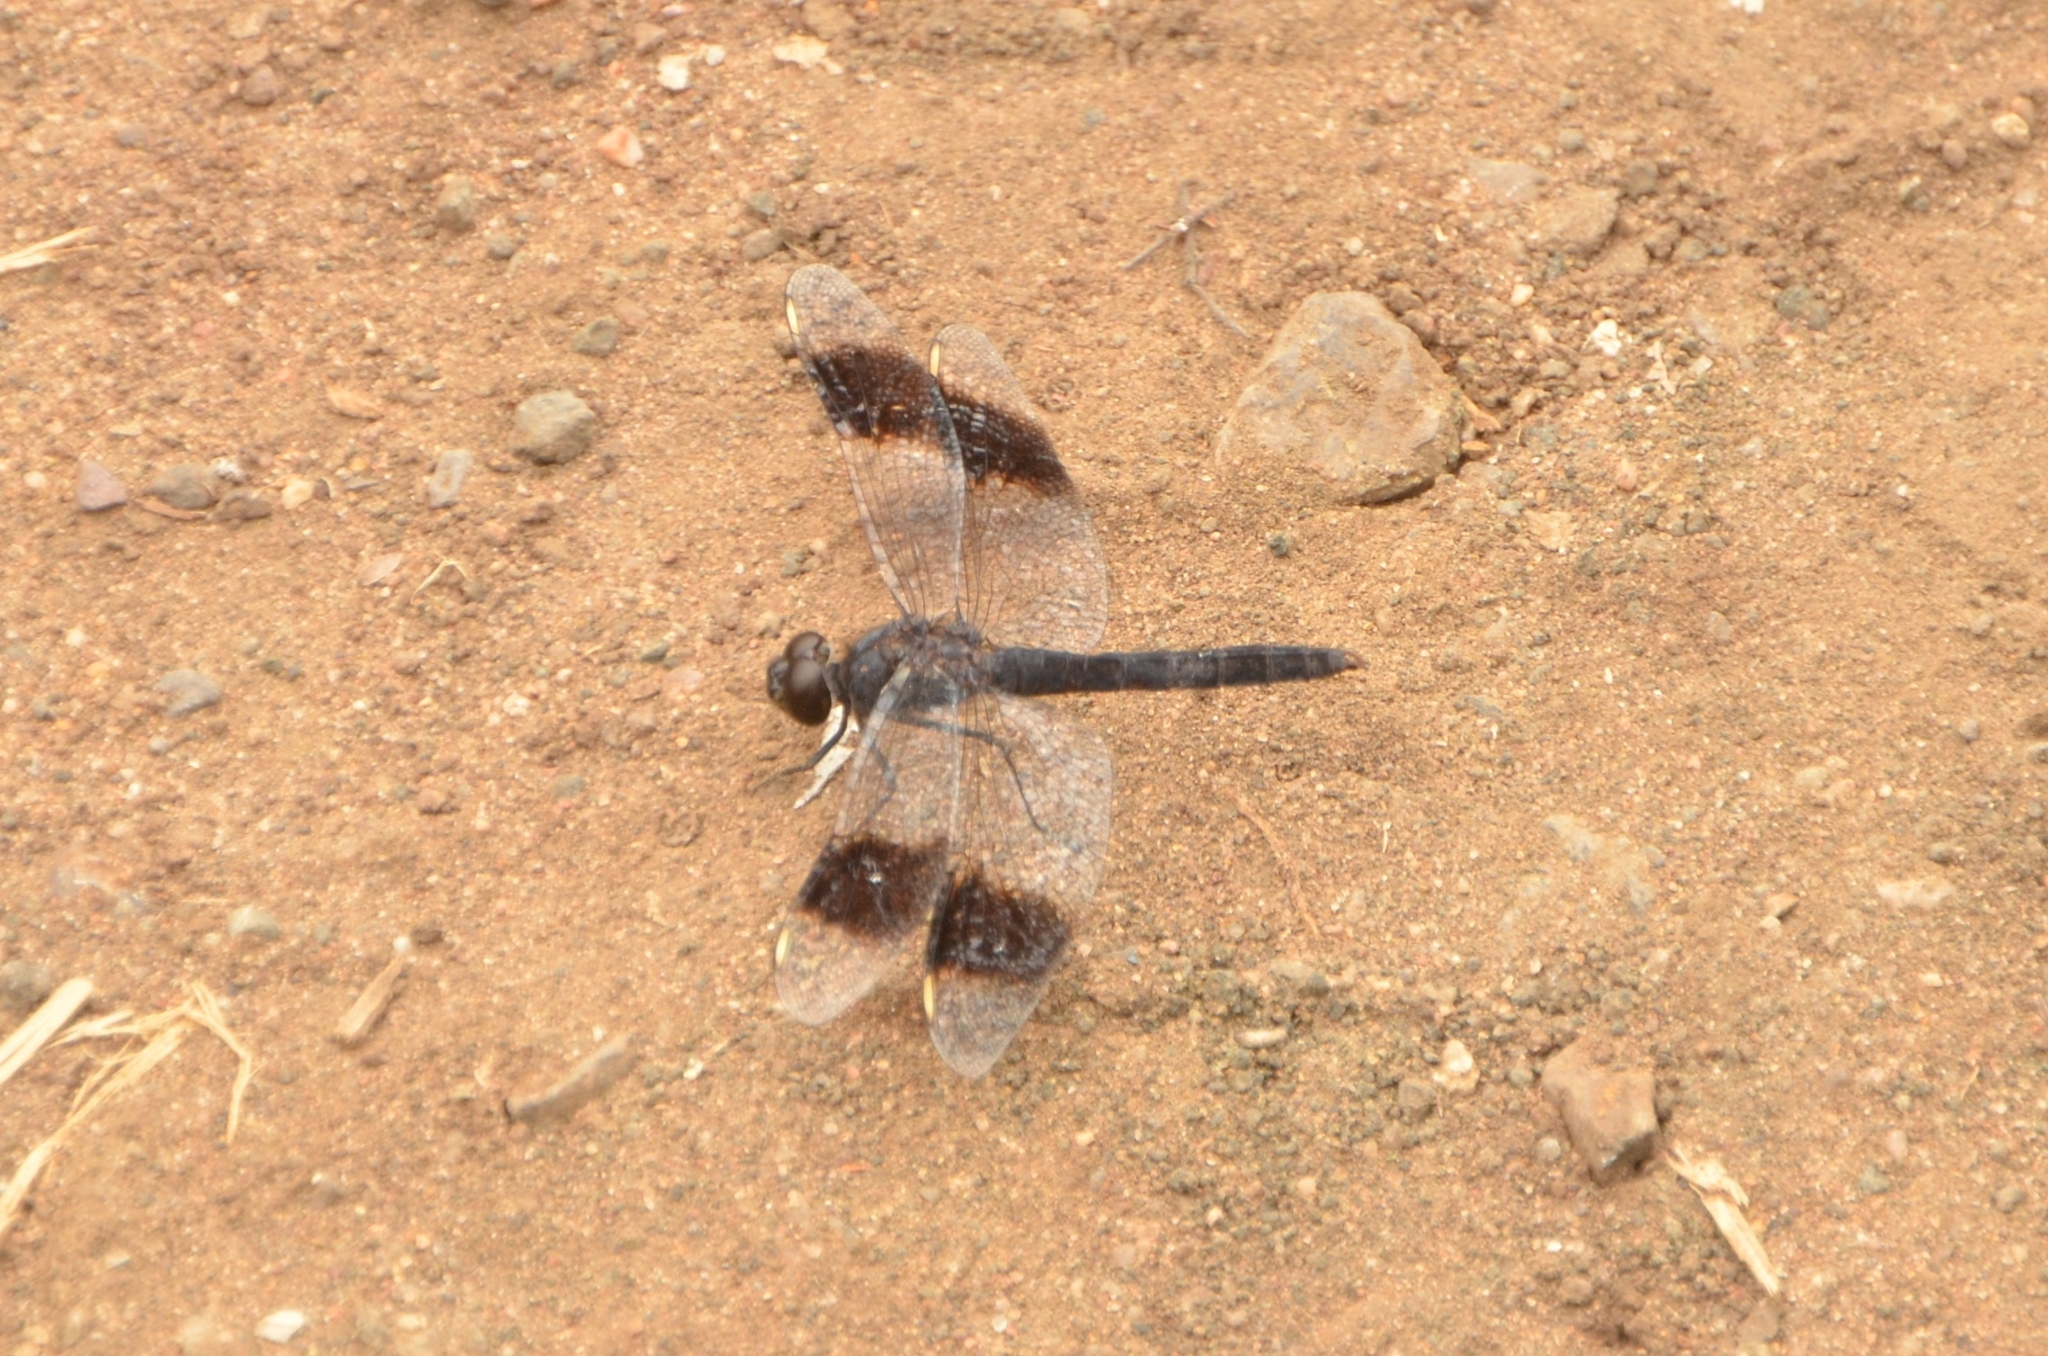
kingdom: Animalia
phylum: Arthropoda
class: Insecta
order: Odonata
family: Libellulidae
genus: Brachythemis
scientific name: Brachythemis leucosticta
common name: Banded groundling
